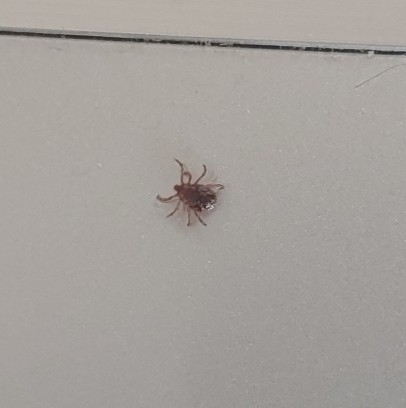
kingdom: Animalia
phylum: Arthropoda
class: Arachnida
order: Ixodida
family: Ixodidae
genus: Dermacentor
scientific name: Dermacentor variabilis
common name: American dog tick
